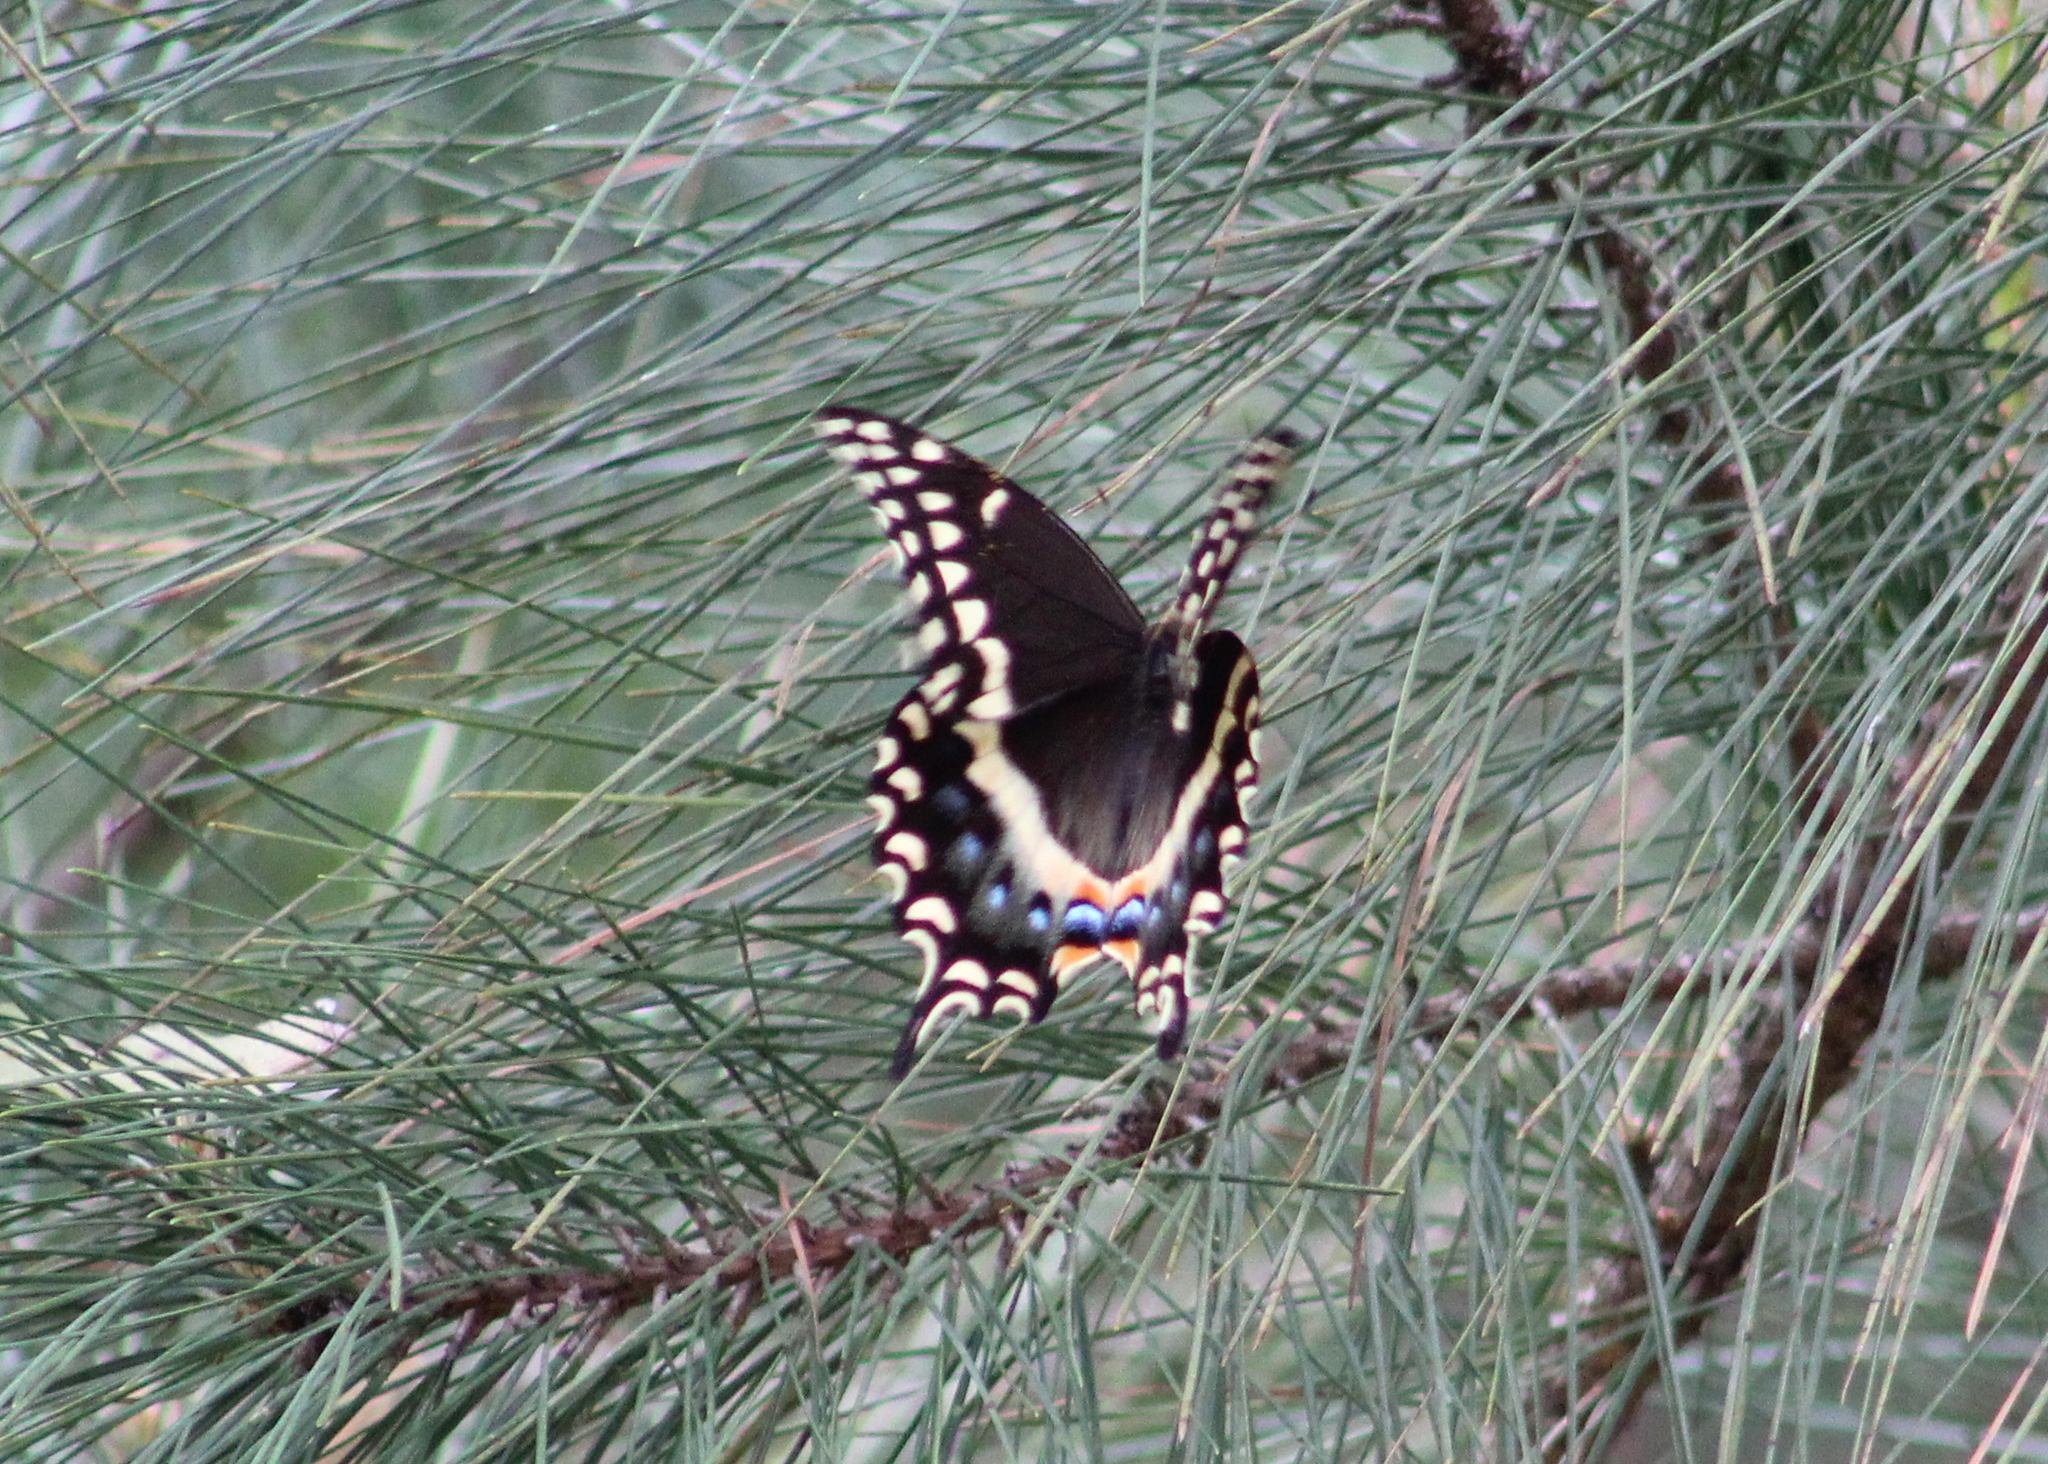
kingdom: Animalia
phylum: Arthropoda
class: Insecta
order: Lepidoptera
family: Papilionidae
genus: Papilio
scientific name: Papilio palamedes
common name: Palamedes swallowtail
